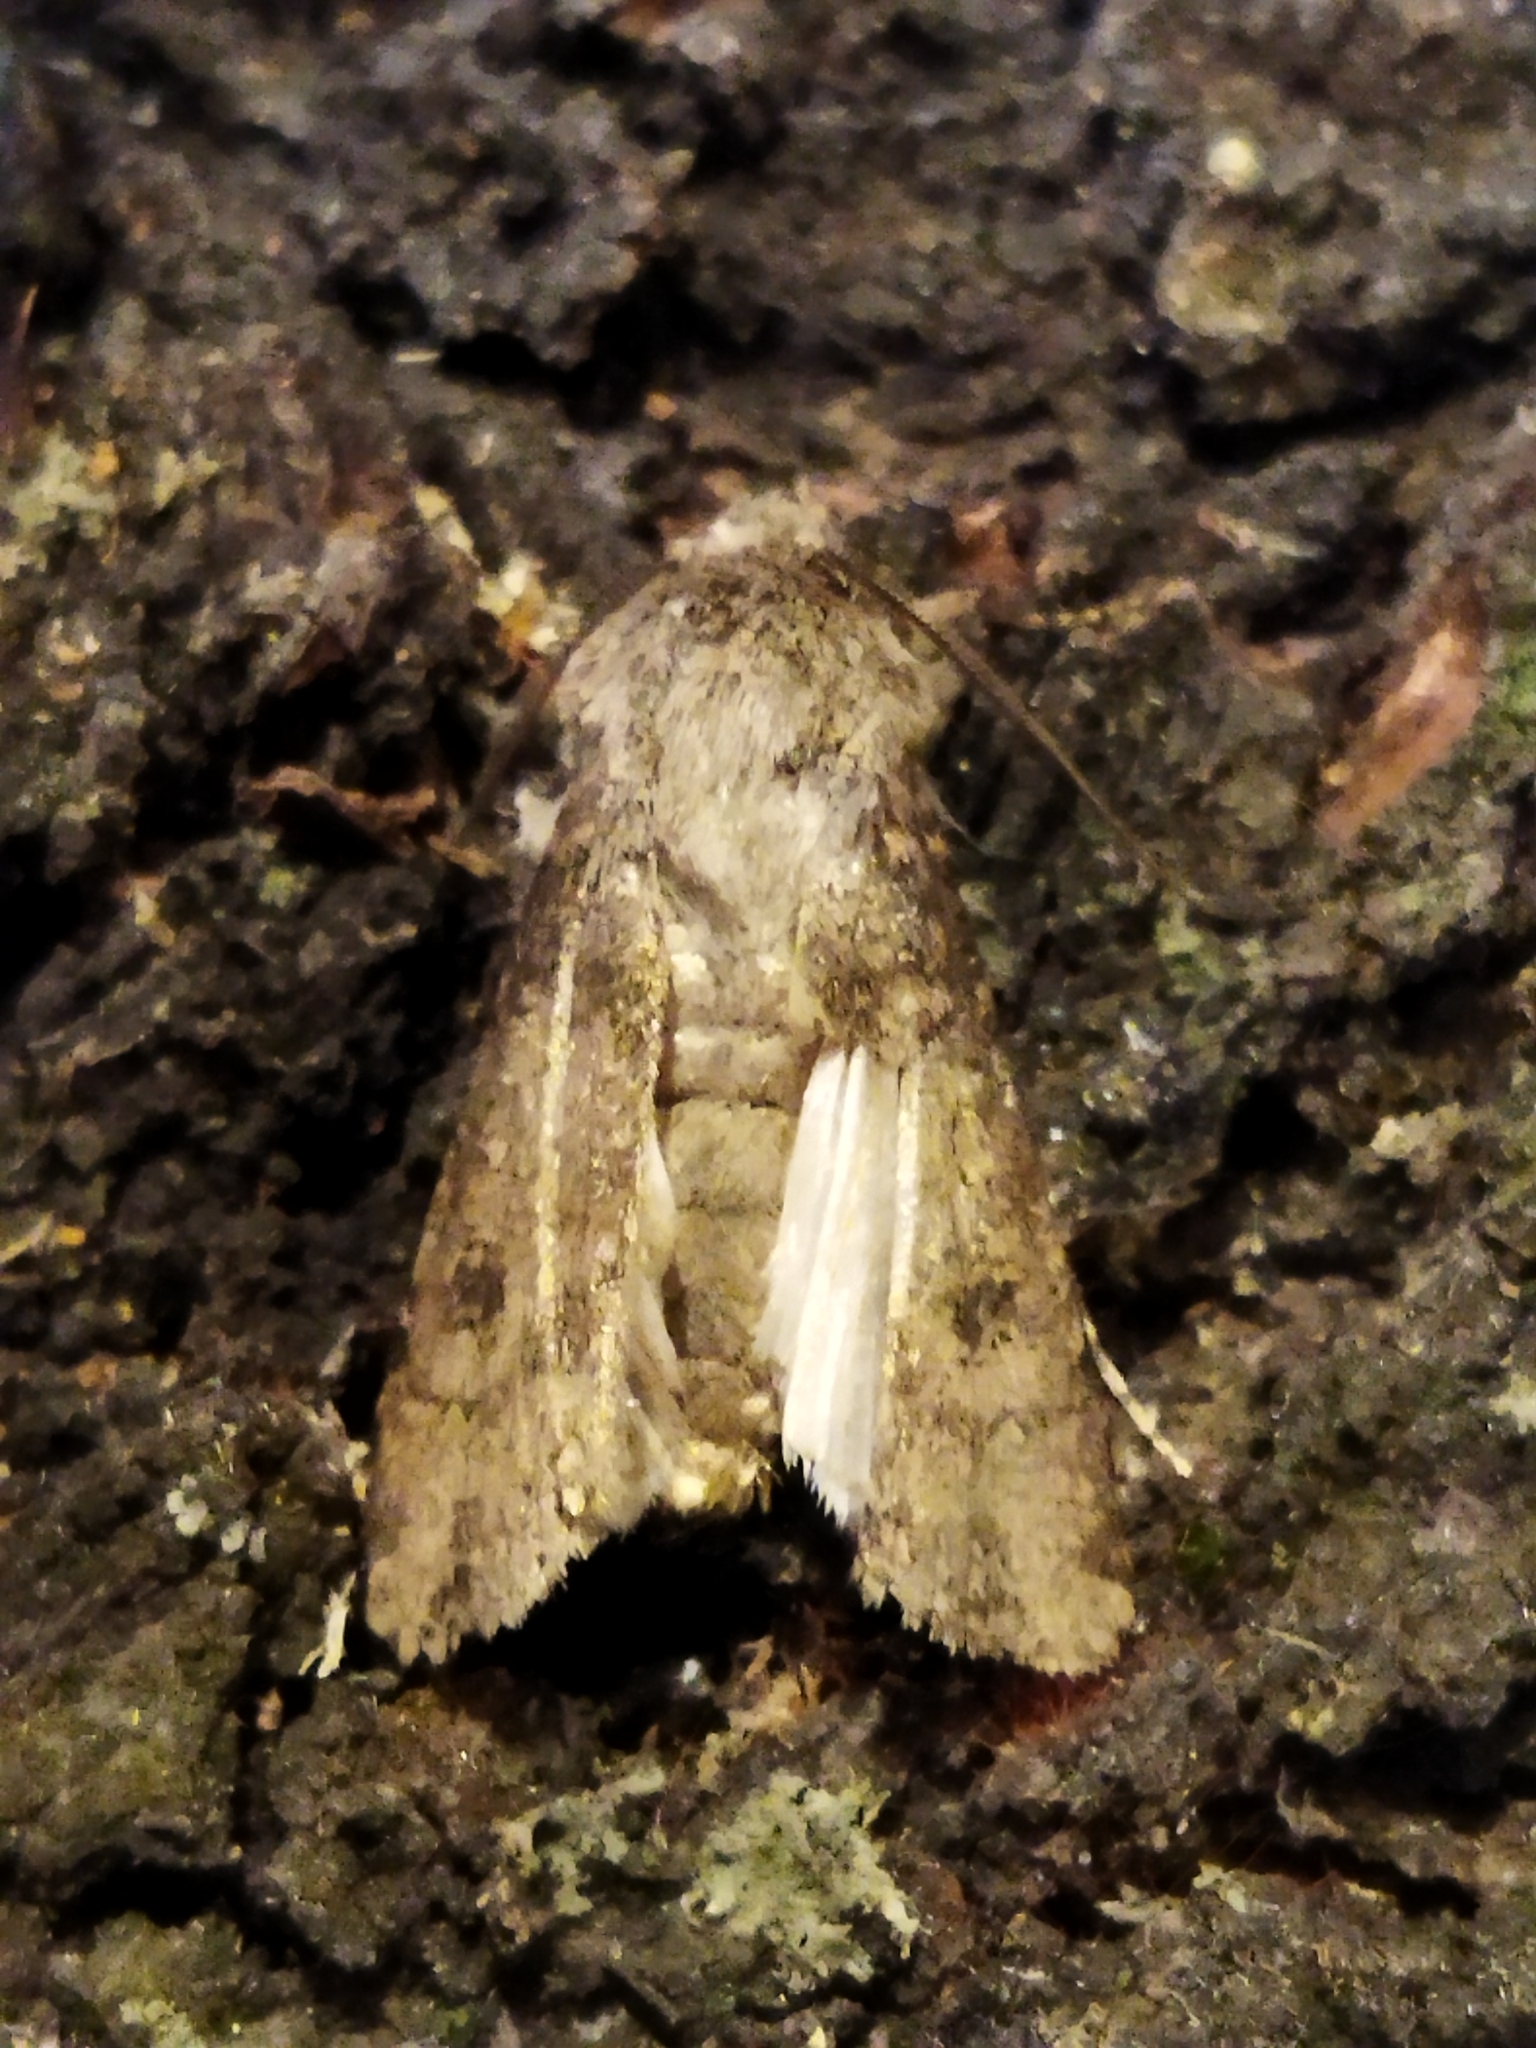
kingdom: Animalia
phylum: Arthropoda
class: Insecta
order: Lepidoptera
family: Noctuidae
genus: Agrotis
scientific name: Agrotis segetum
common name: Turnip moth
